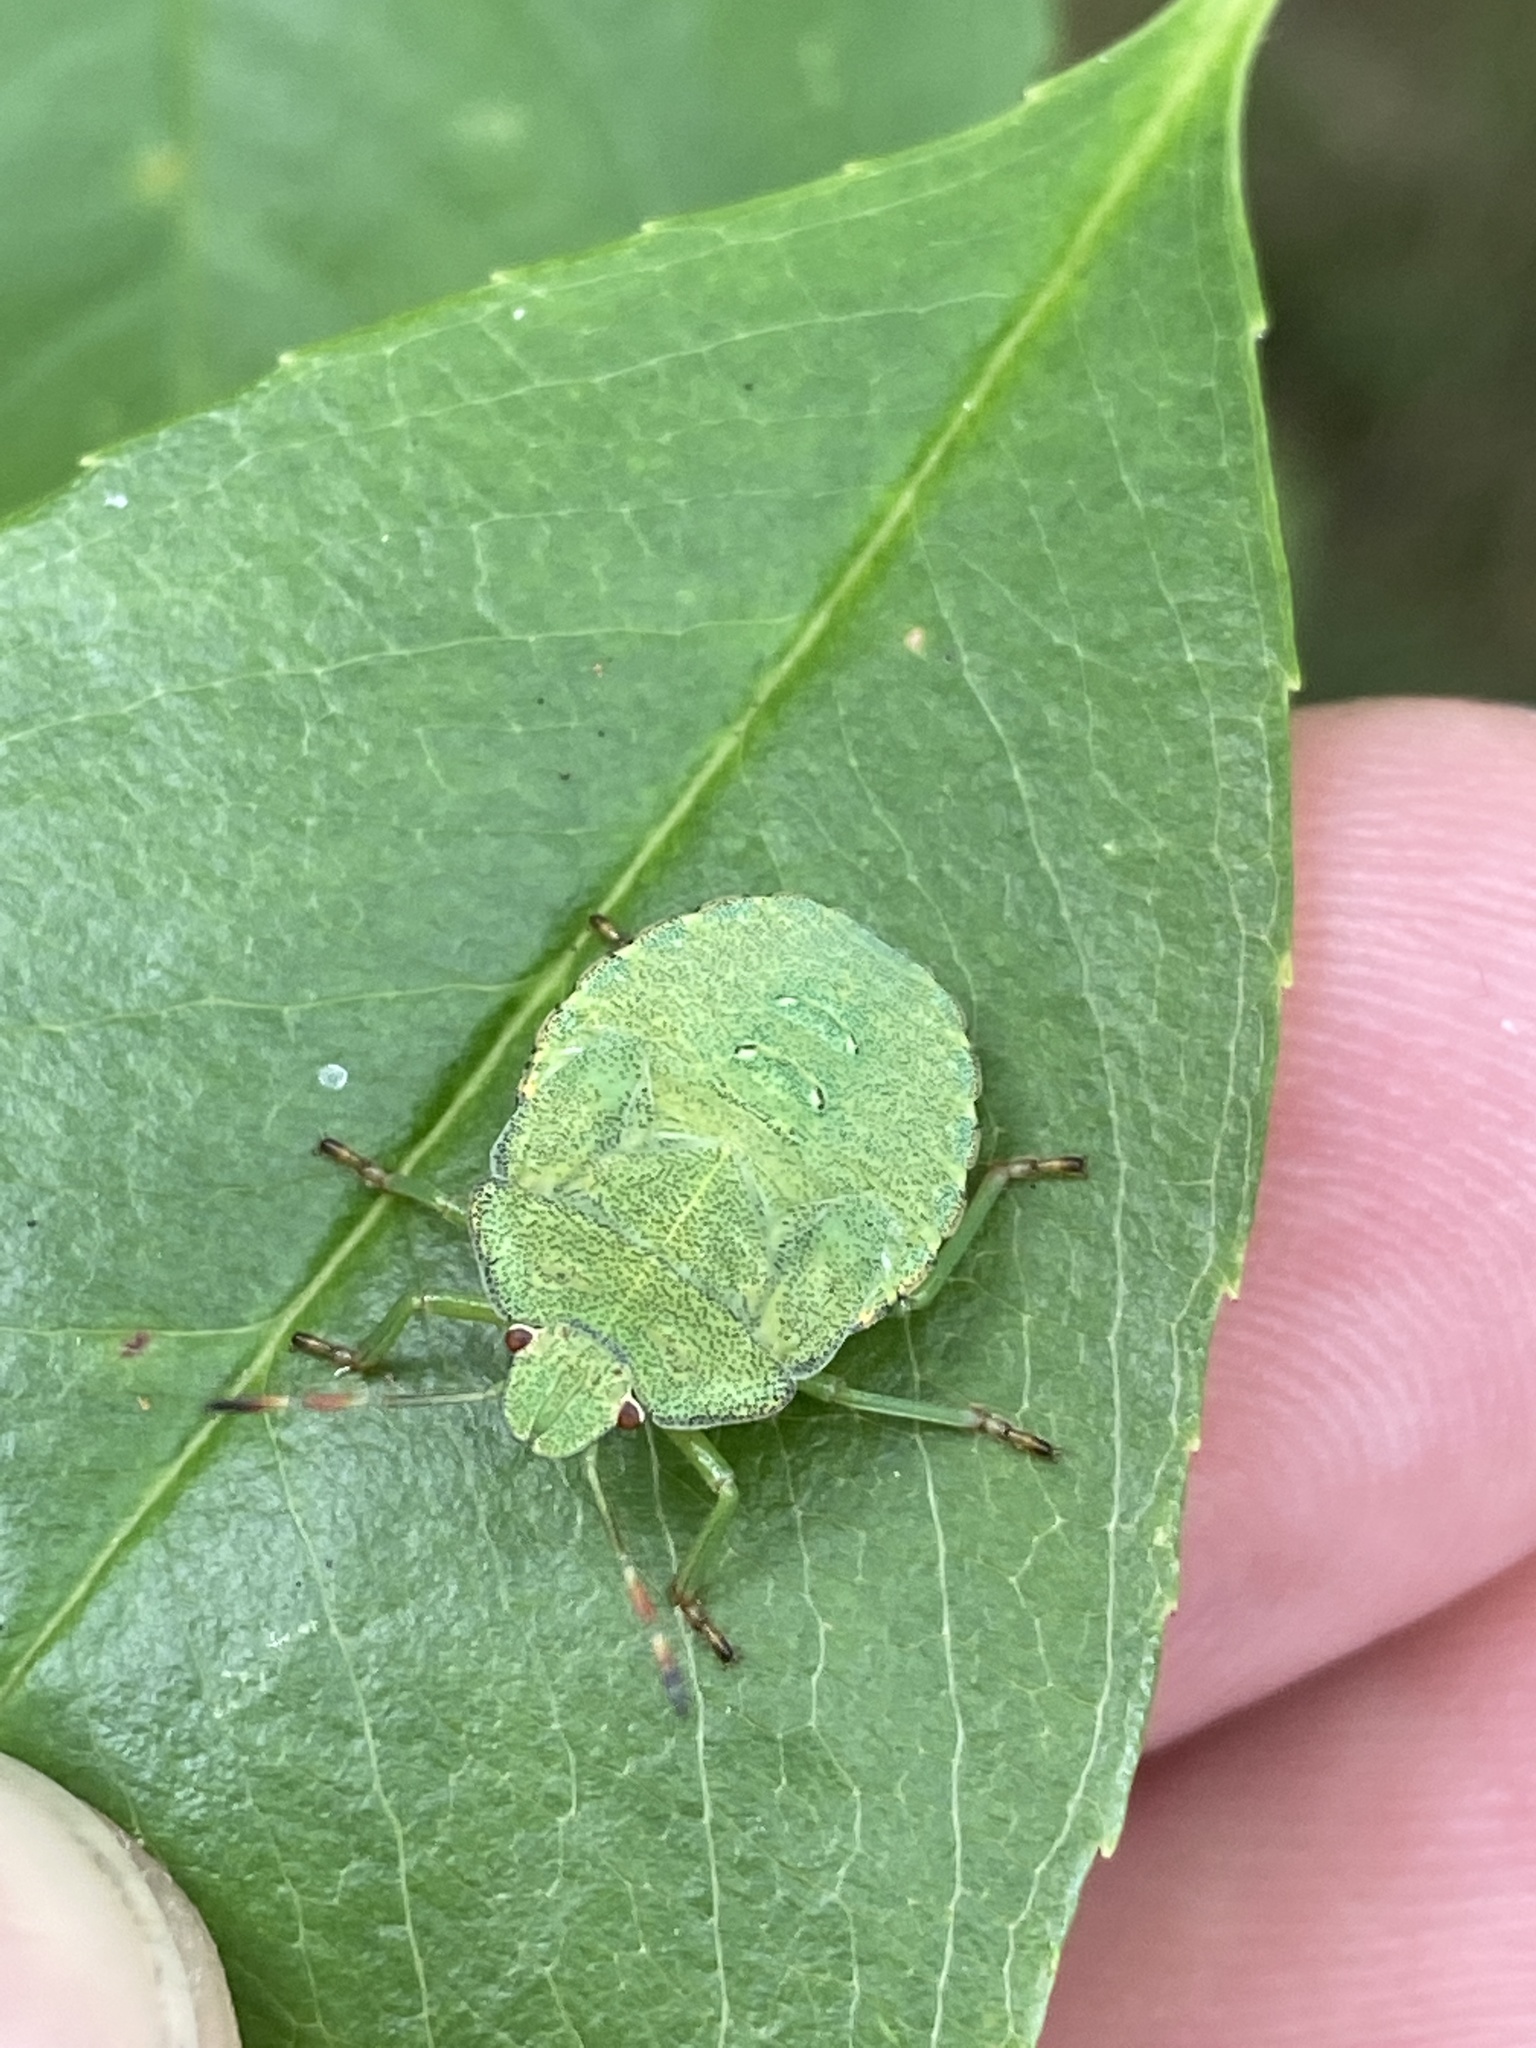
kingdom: Animalia
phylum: Arthropoda
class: Insecta
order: Hemiptera
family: Pentatomidae
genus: Palomena
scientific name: Palomena prasina
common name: Green shieldbug
